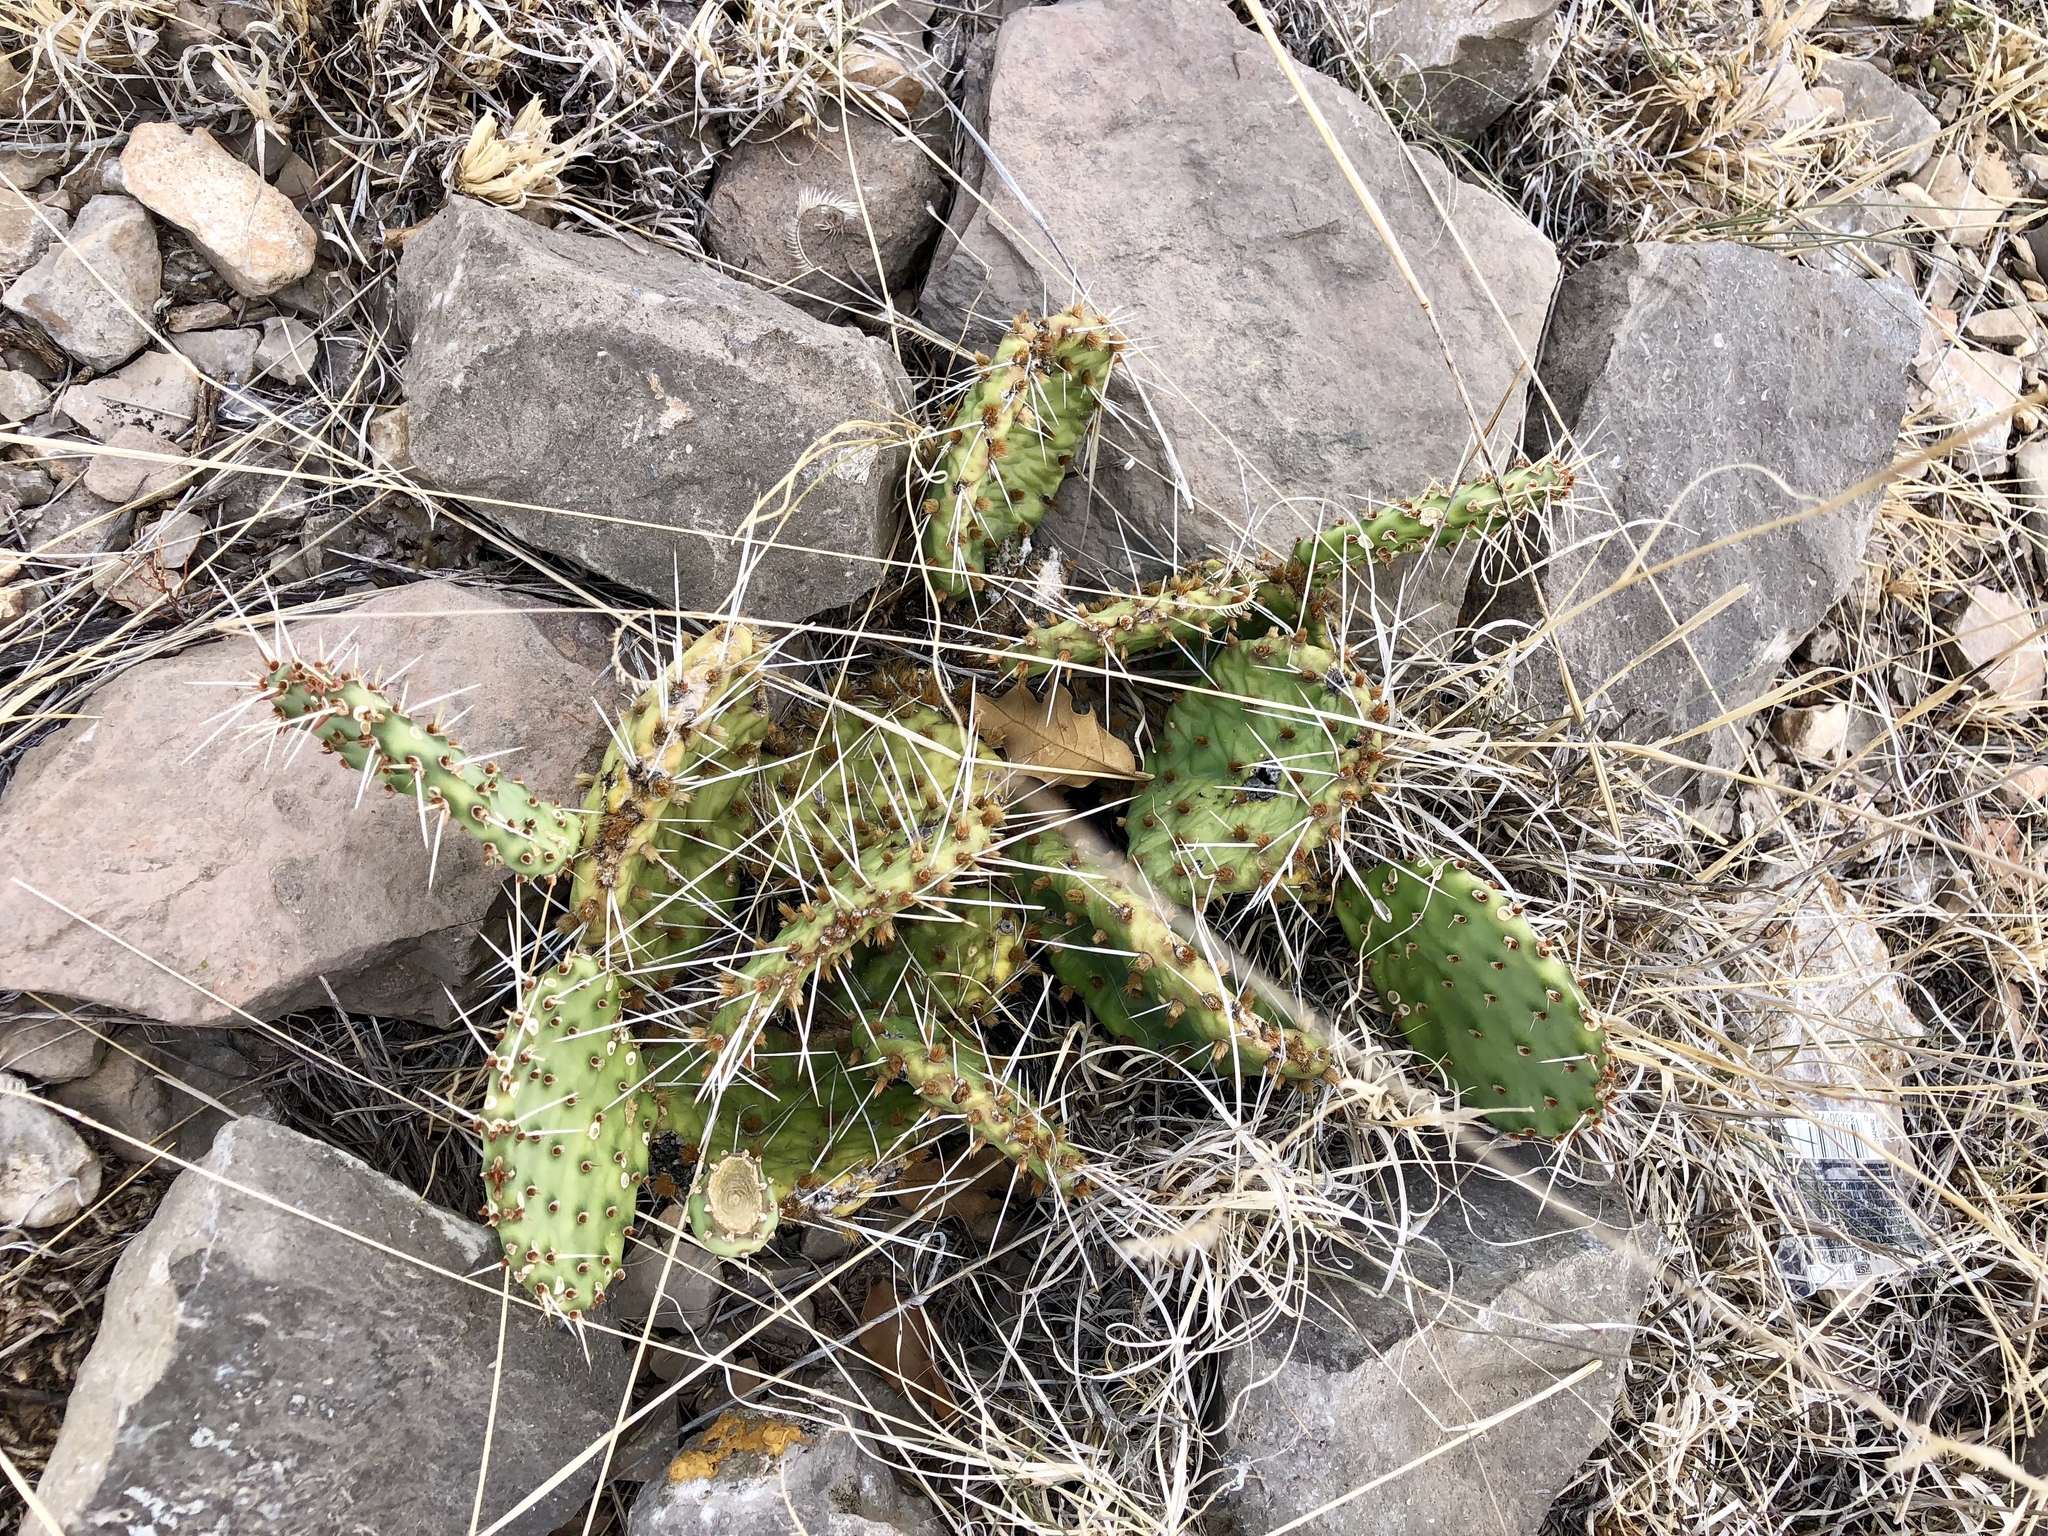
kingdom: Plantae
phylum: Tracheophyta
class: Magnoliopsida
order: Caryophyllales
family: Cactaceae
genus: Opuntia
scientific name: Opuntia pottsii
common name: Potts's prickly-pear
